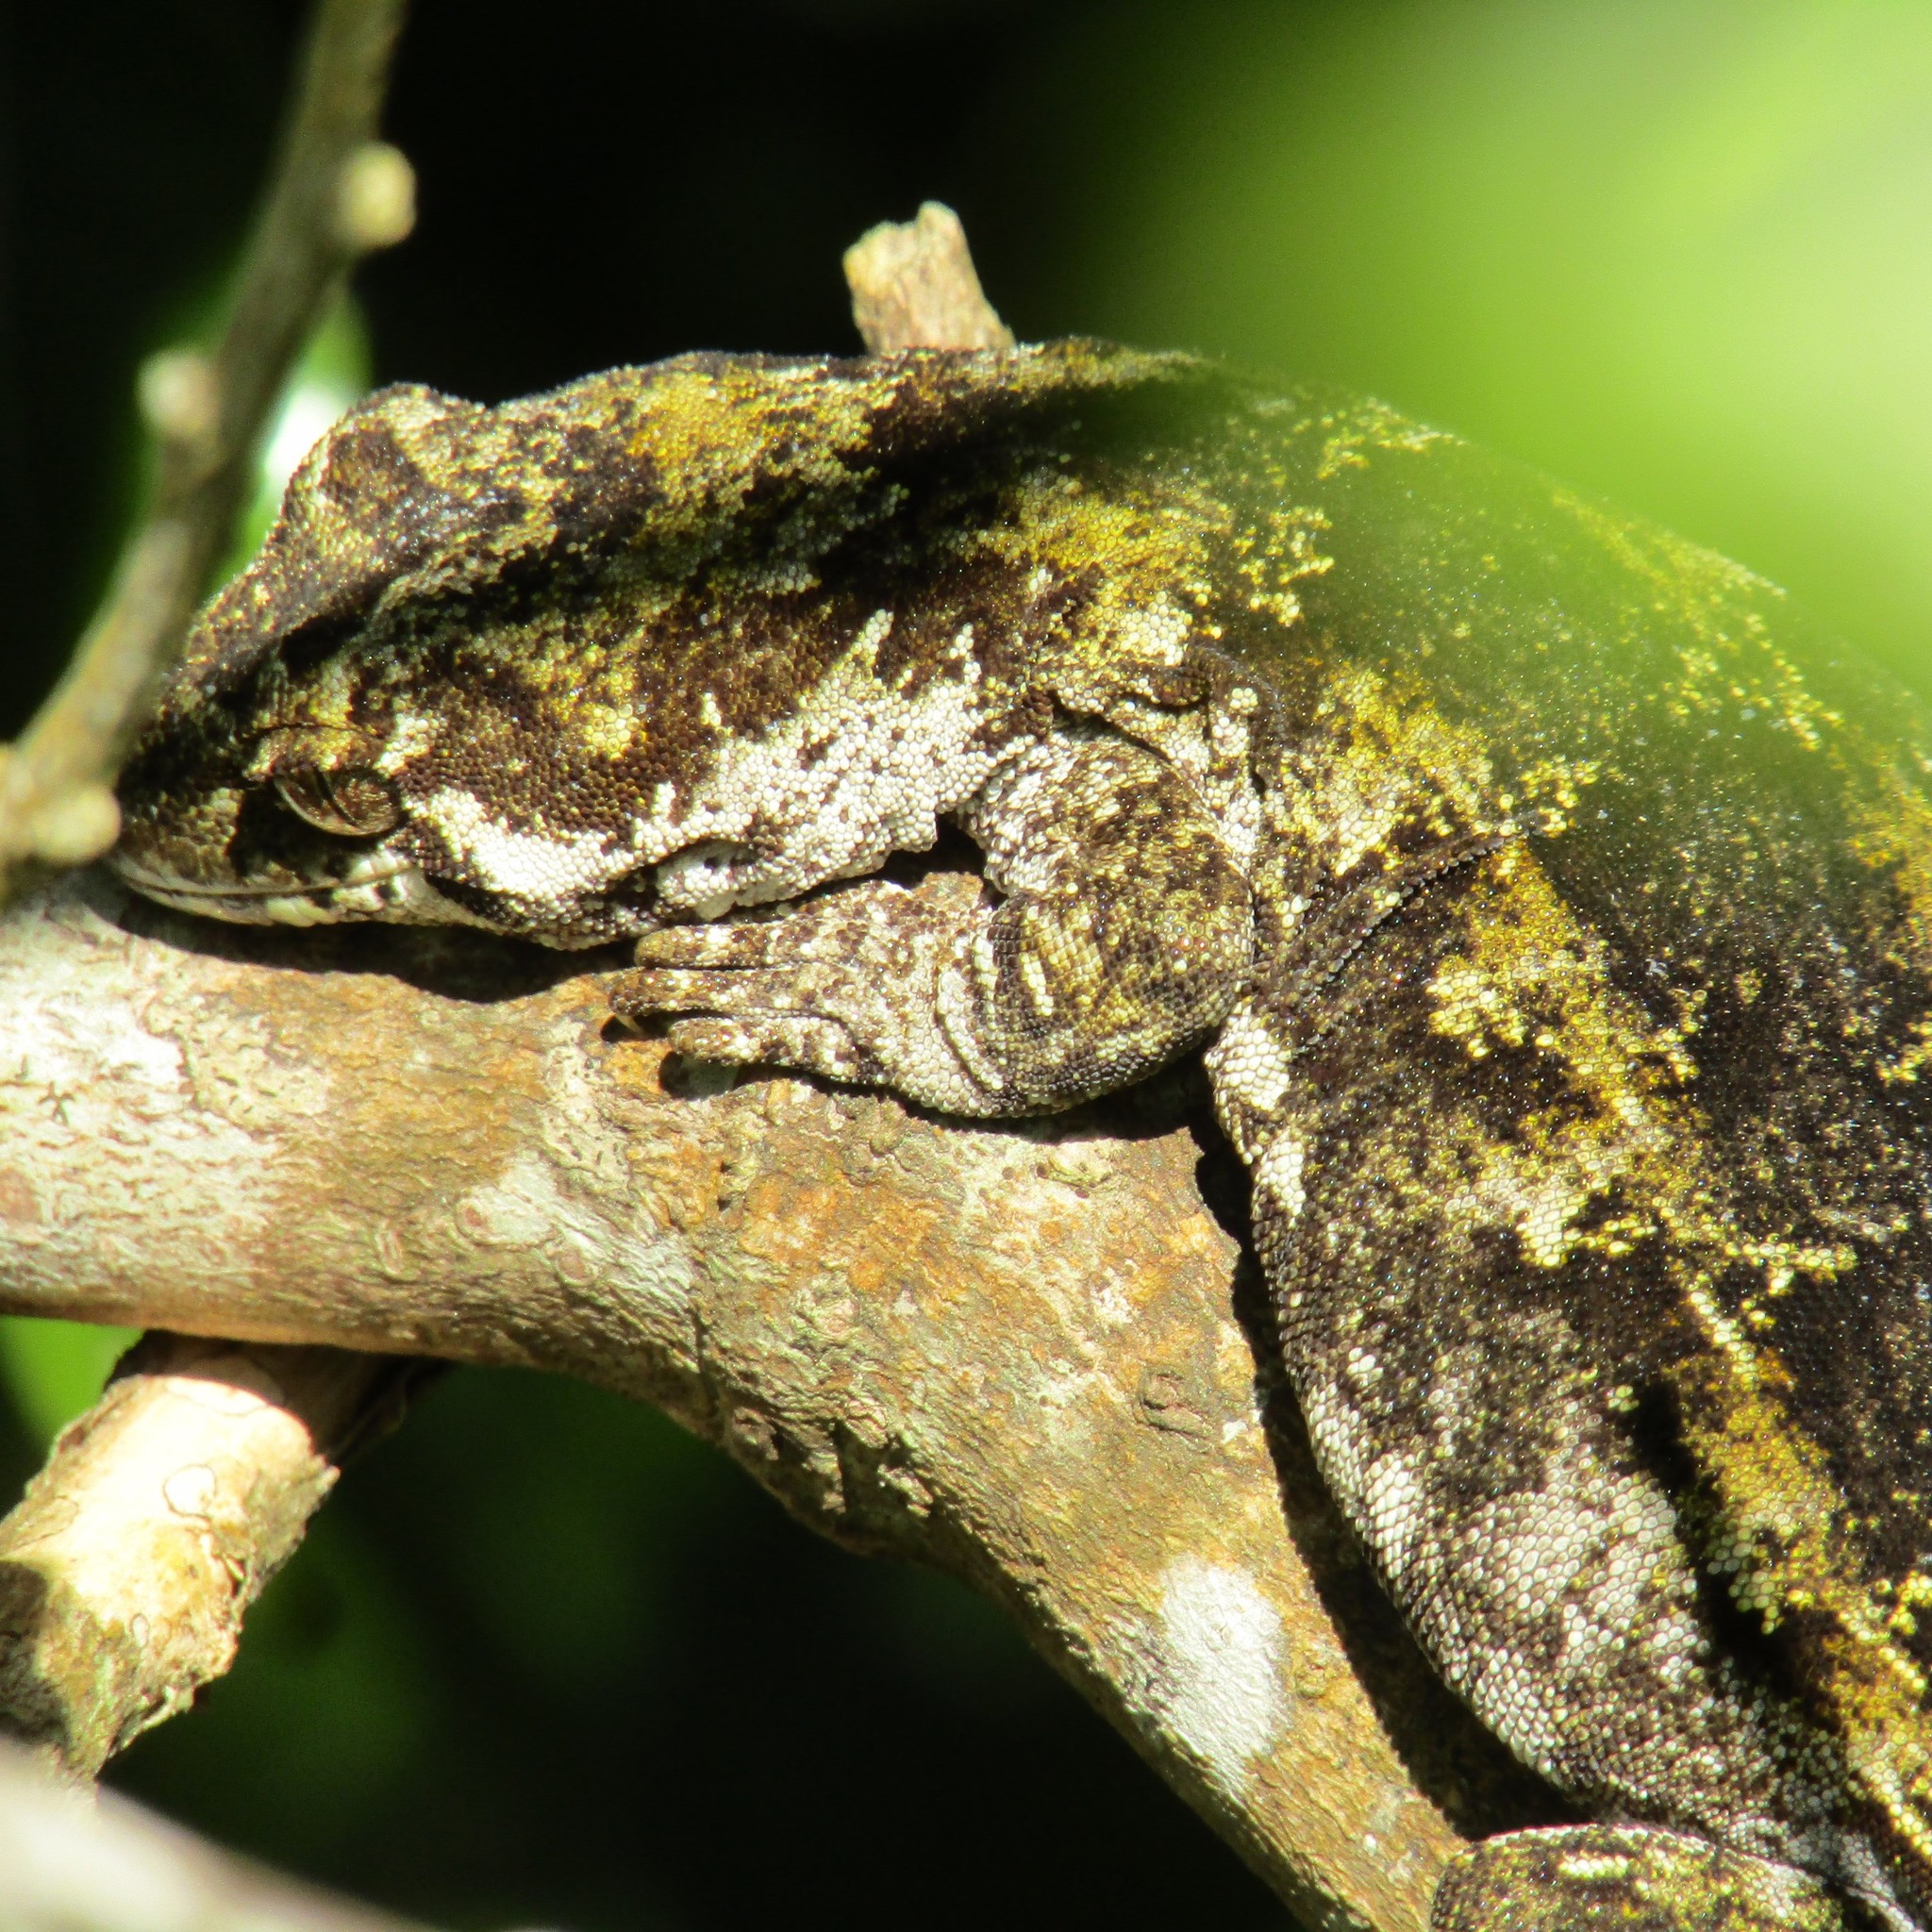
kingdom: Animalia
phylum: Chordata
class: Squamata
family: Diplodactylidae
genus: Mokopirirakau
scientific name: Mokopirirakau
